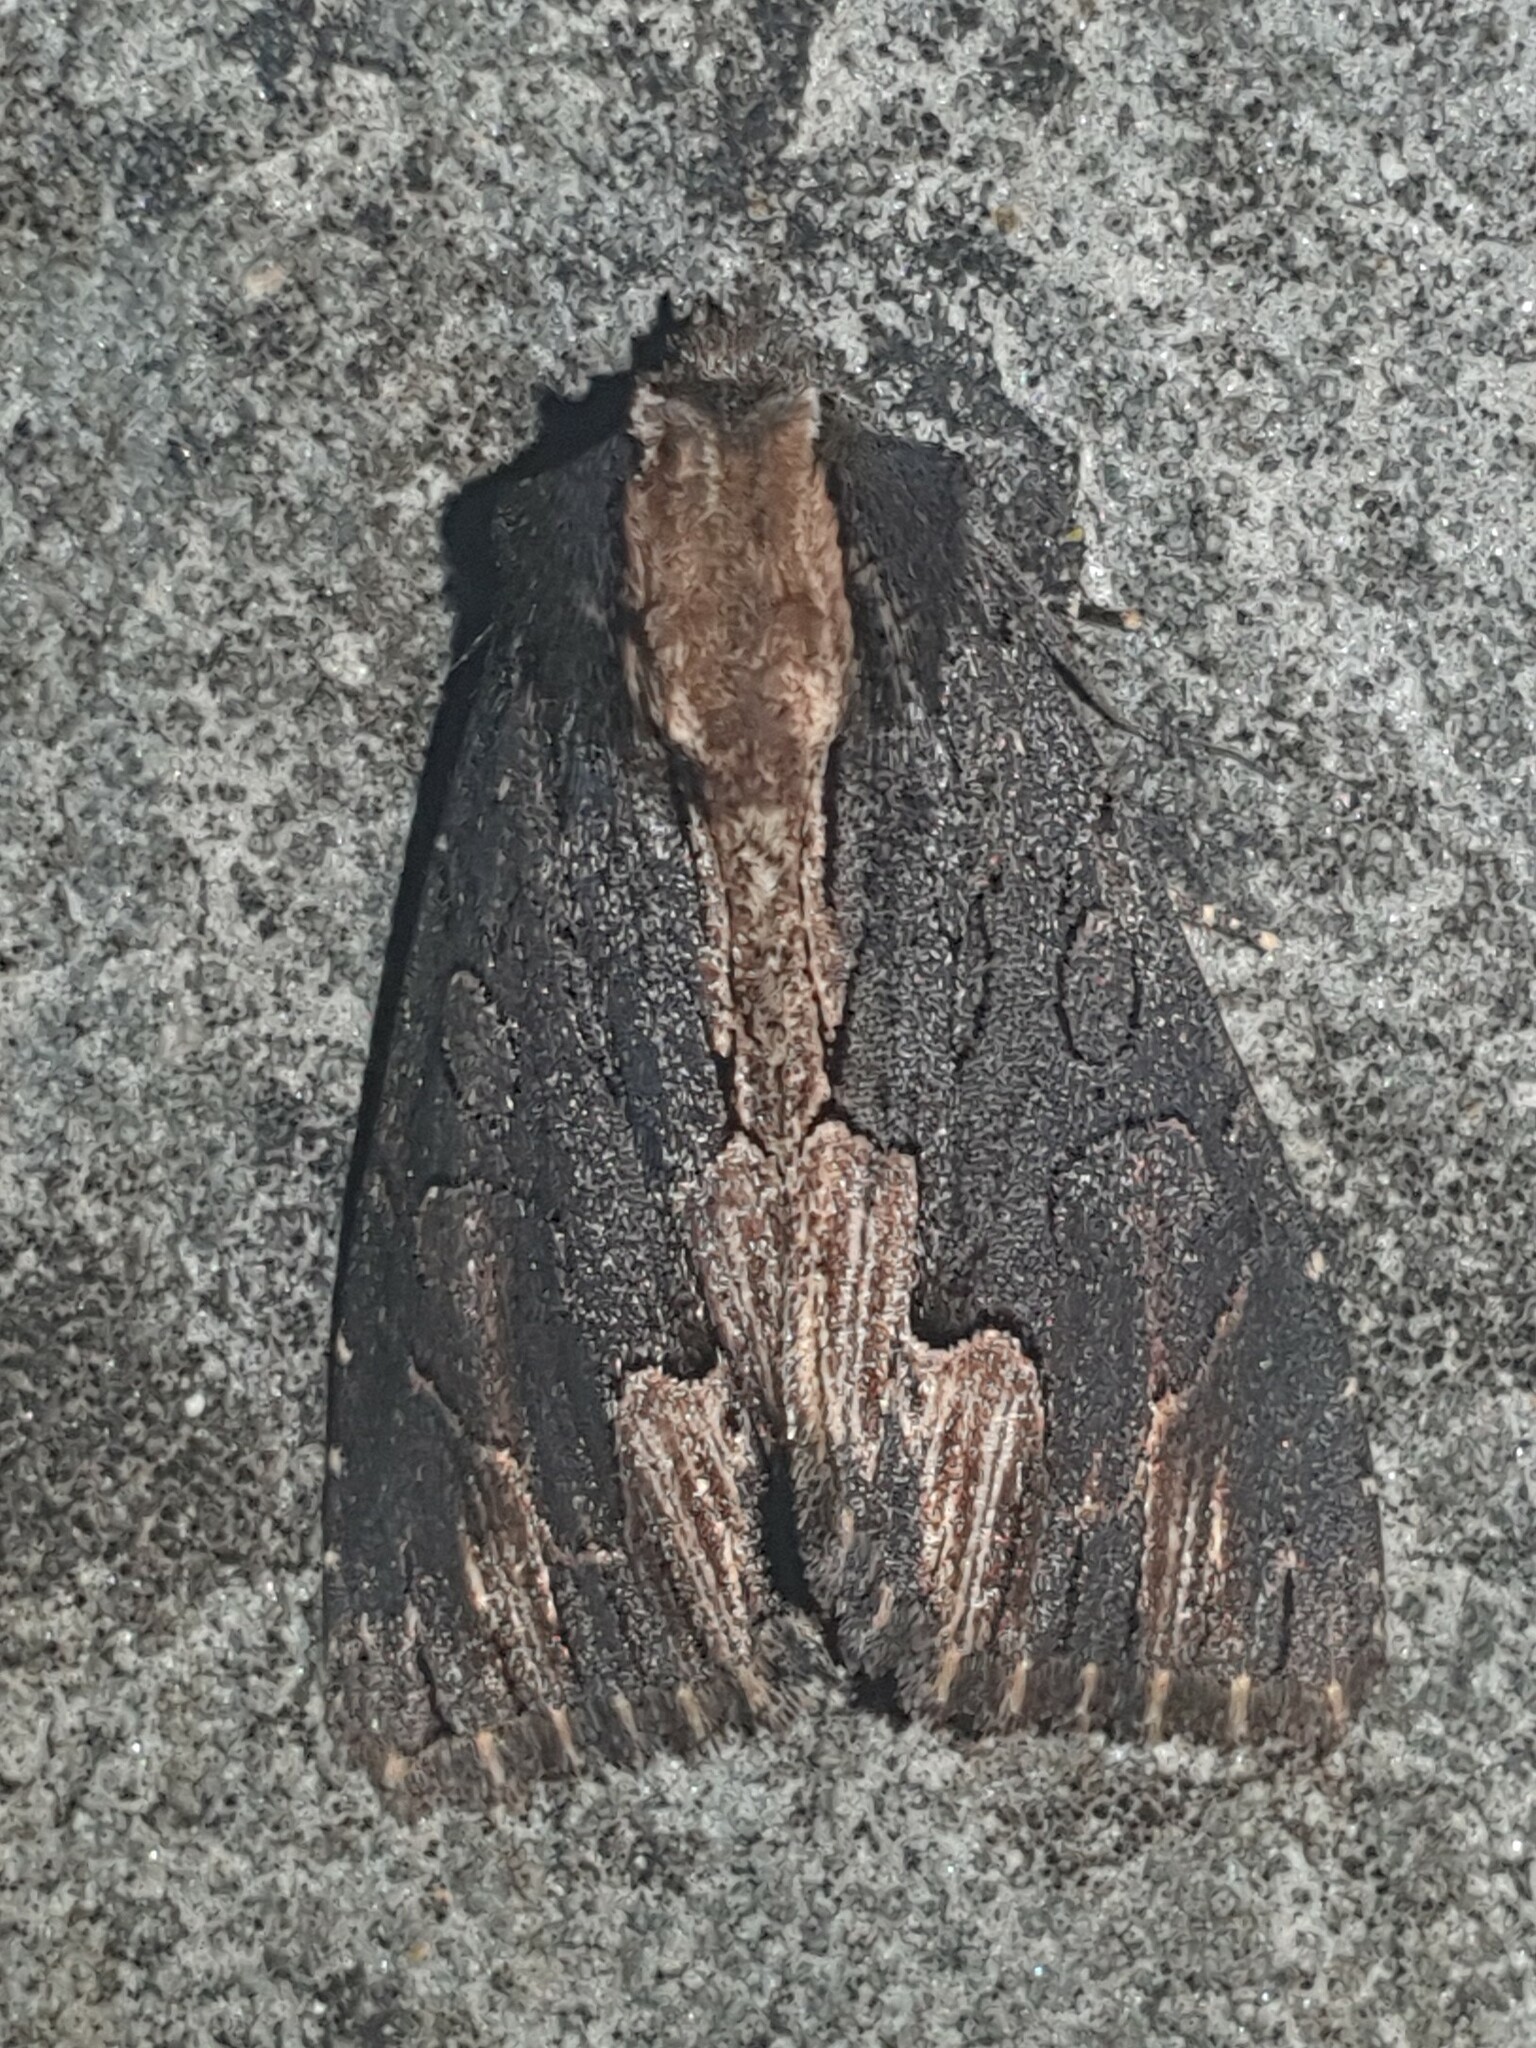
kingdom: Animalia
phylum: Arthropoda
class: Insecta
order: Lepidoptera
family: Noctuidae
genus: Dypterygia
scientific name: Dypterygia scabriuscula
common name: Bird's wing
